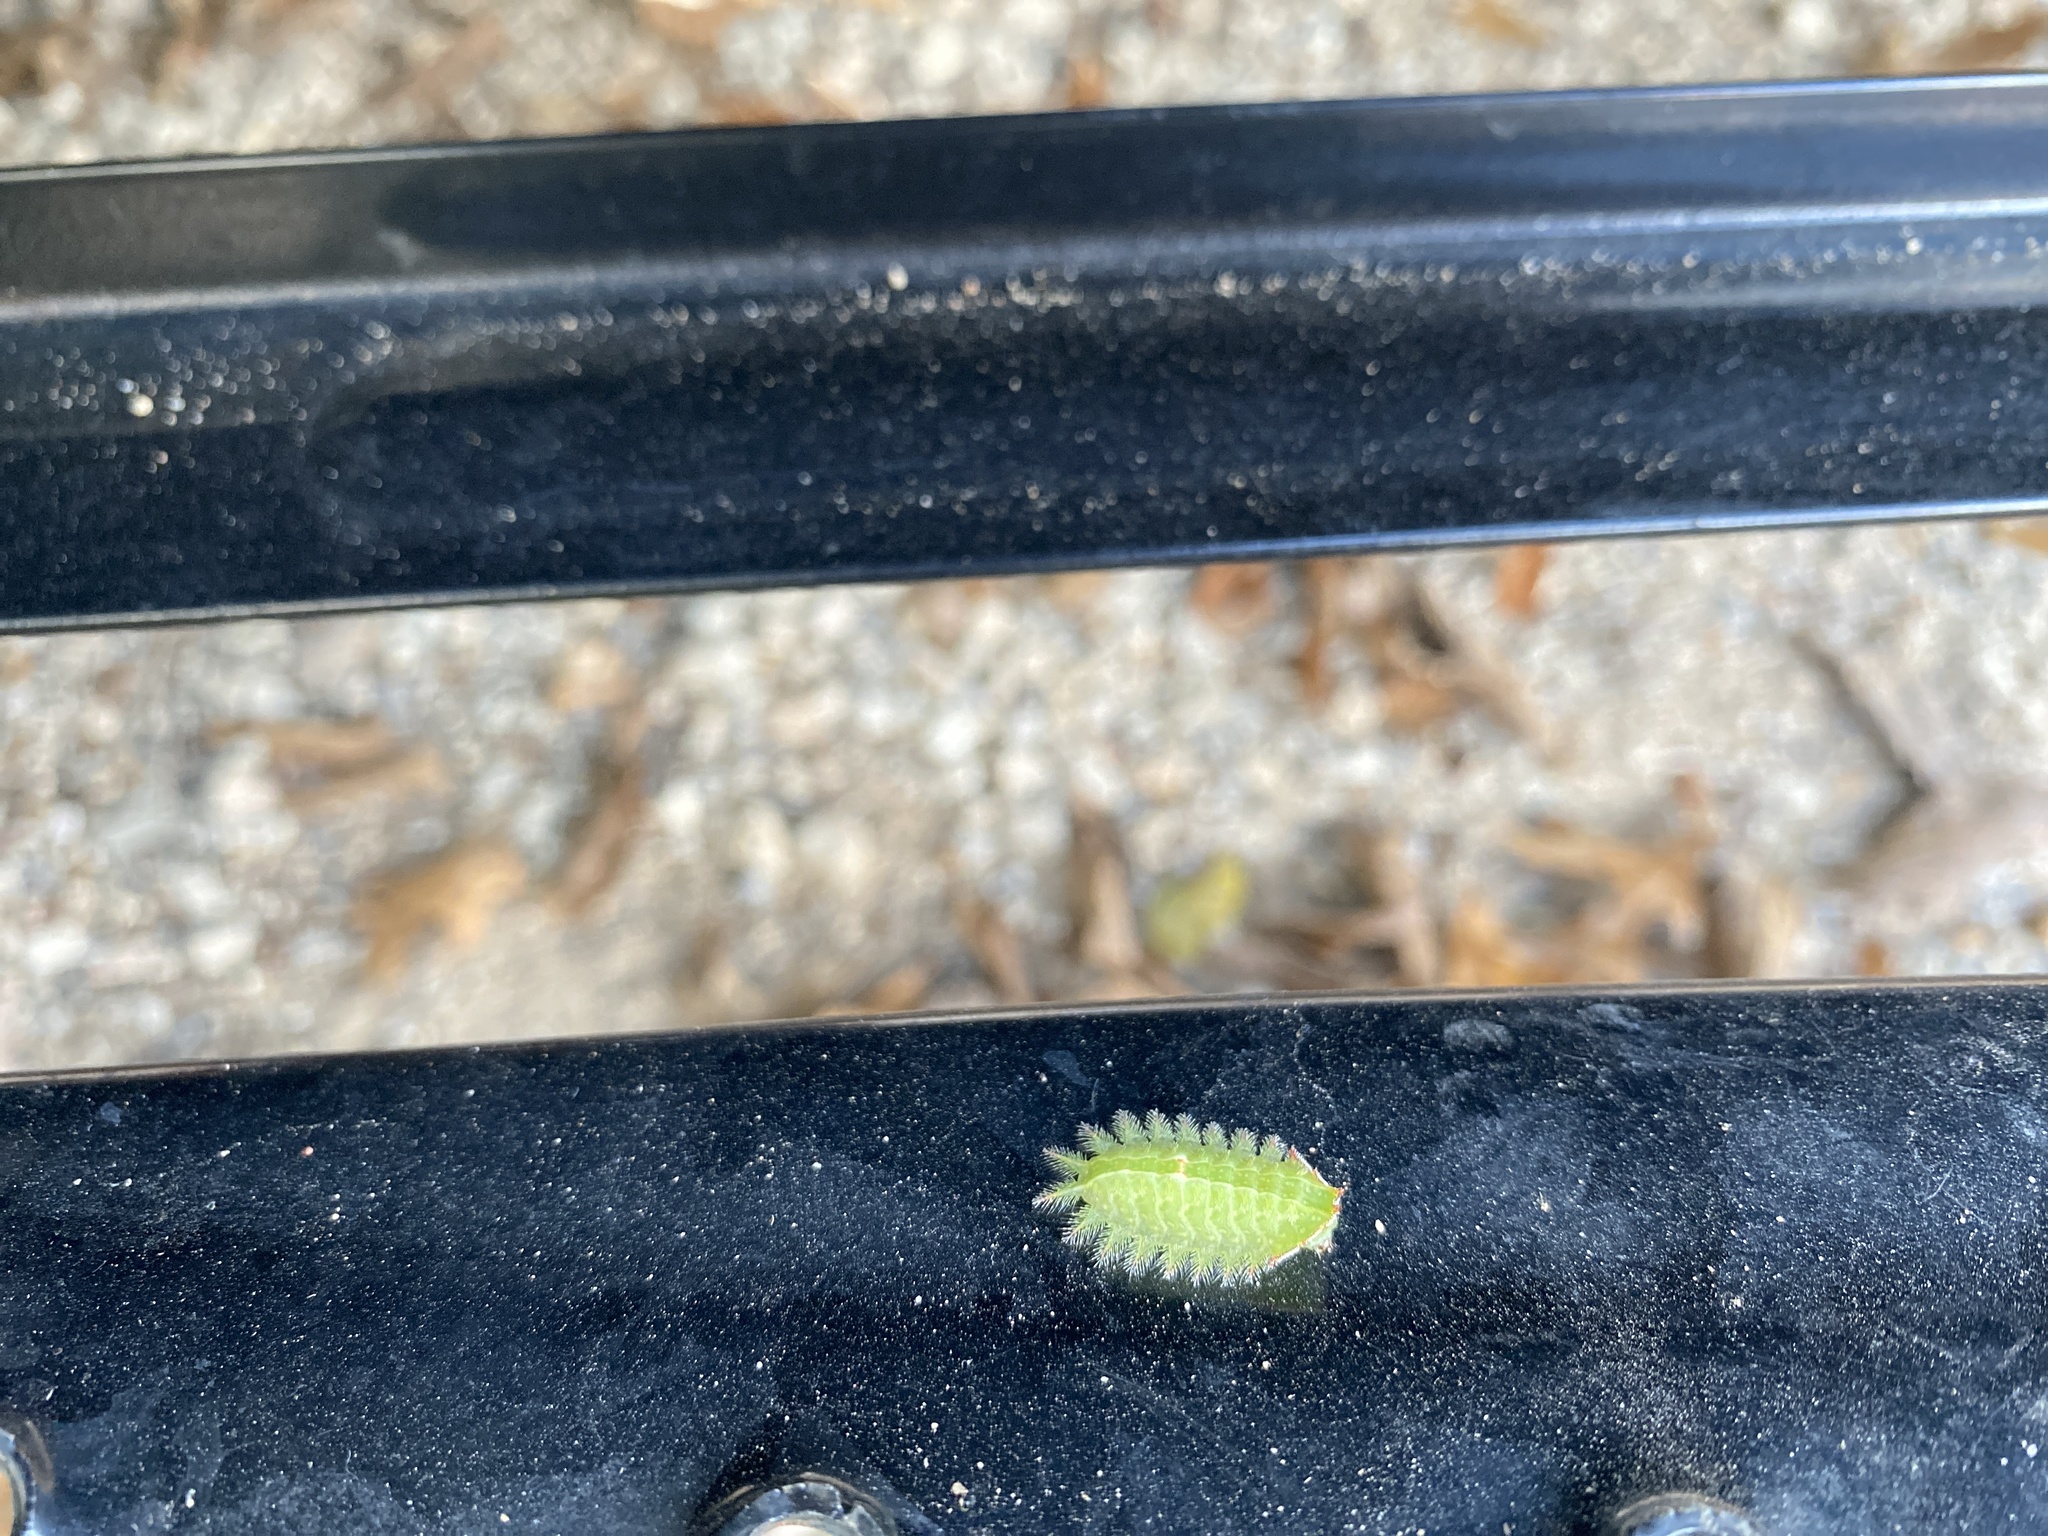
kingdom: Animalia
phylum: Arthropoda
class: Insecta
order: Lepidoptera
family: Limacodidae
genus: Isa
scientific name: Isa textula
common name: Crowned slug moth
